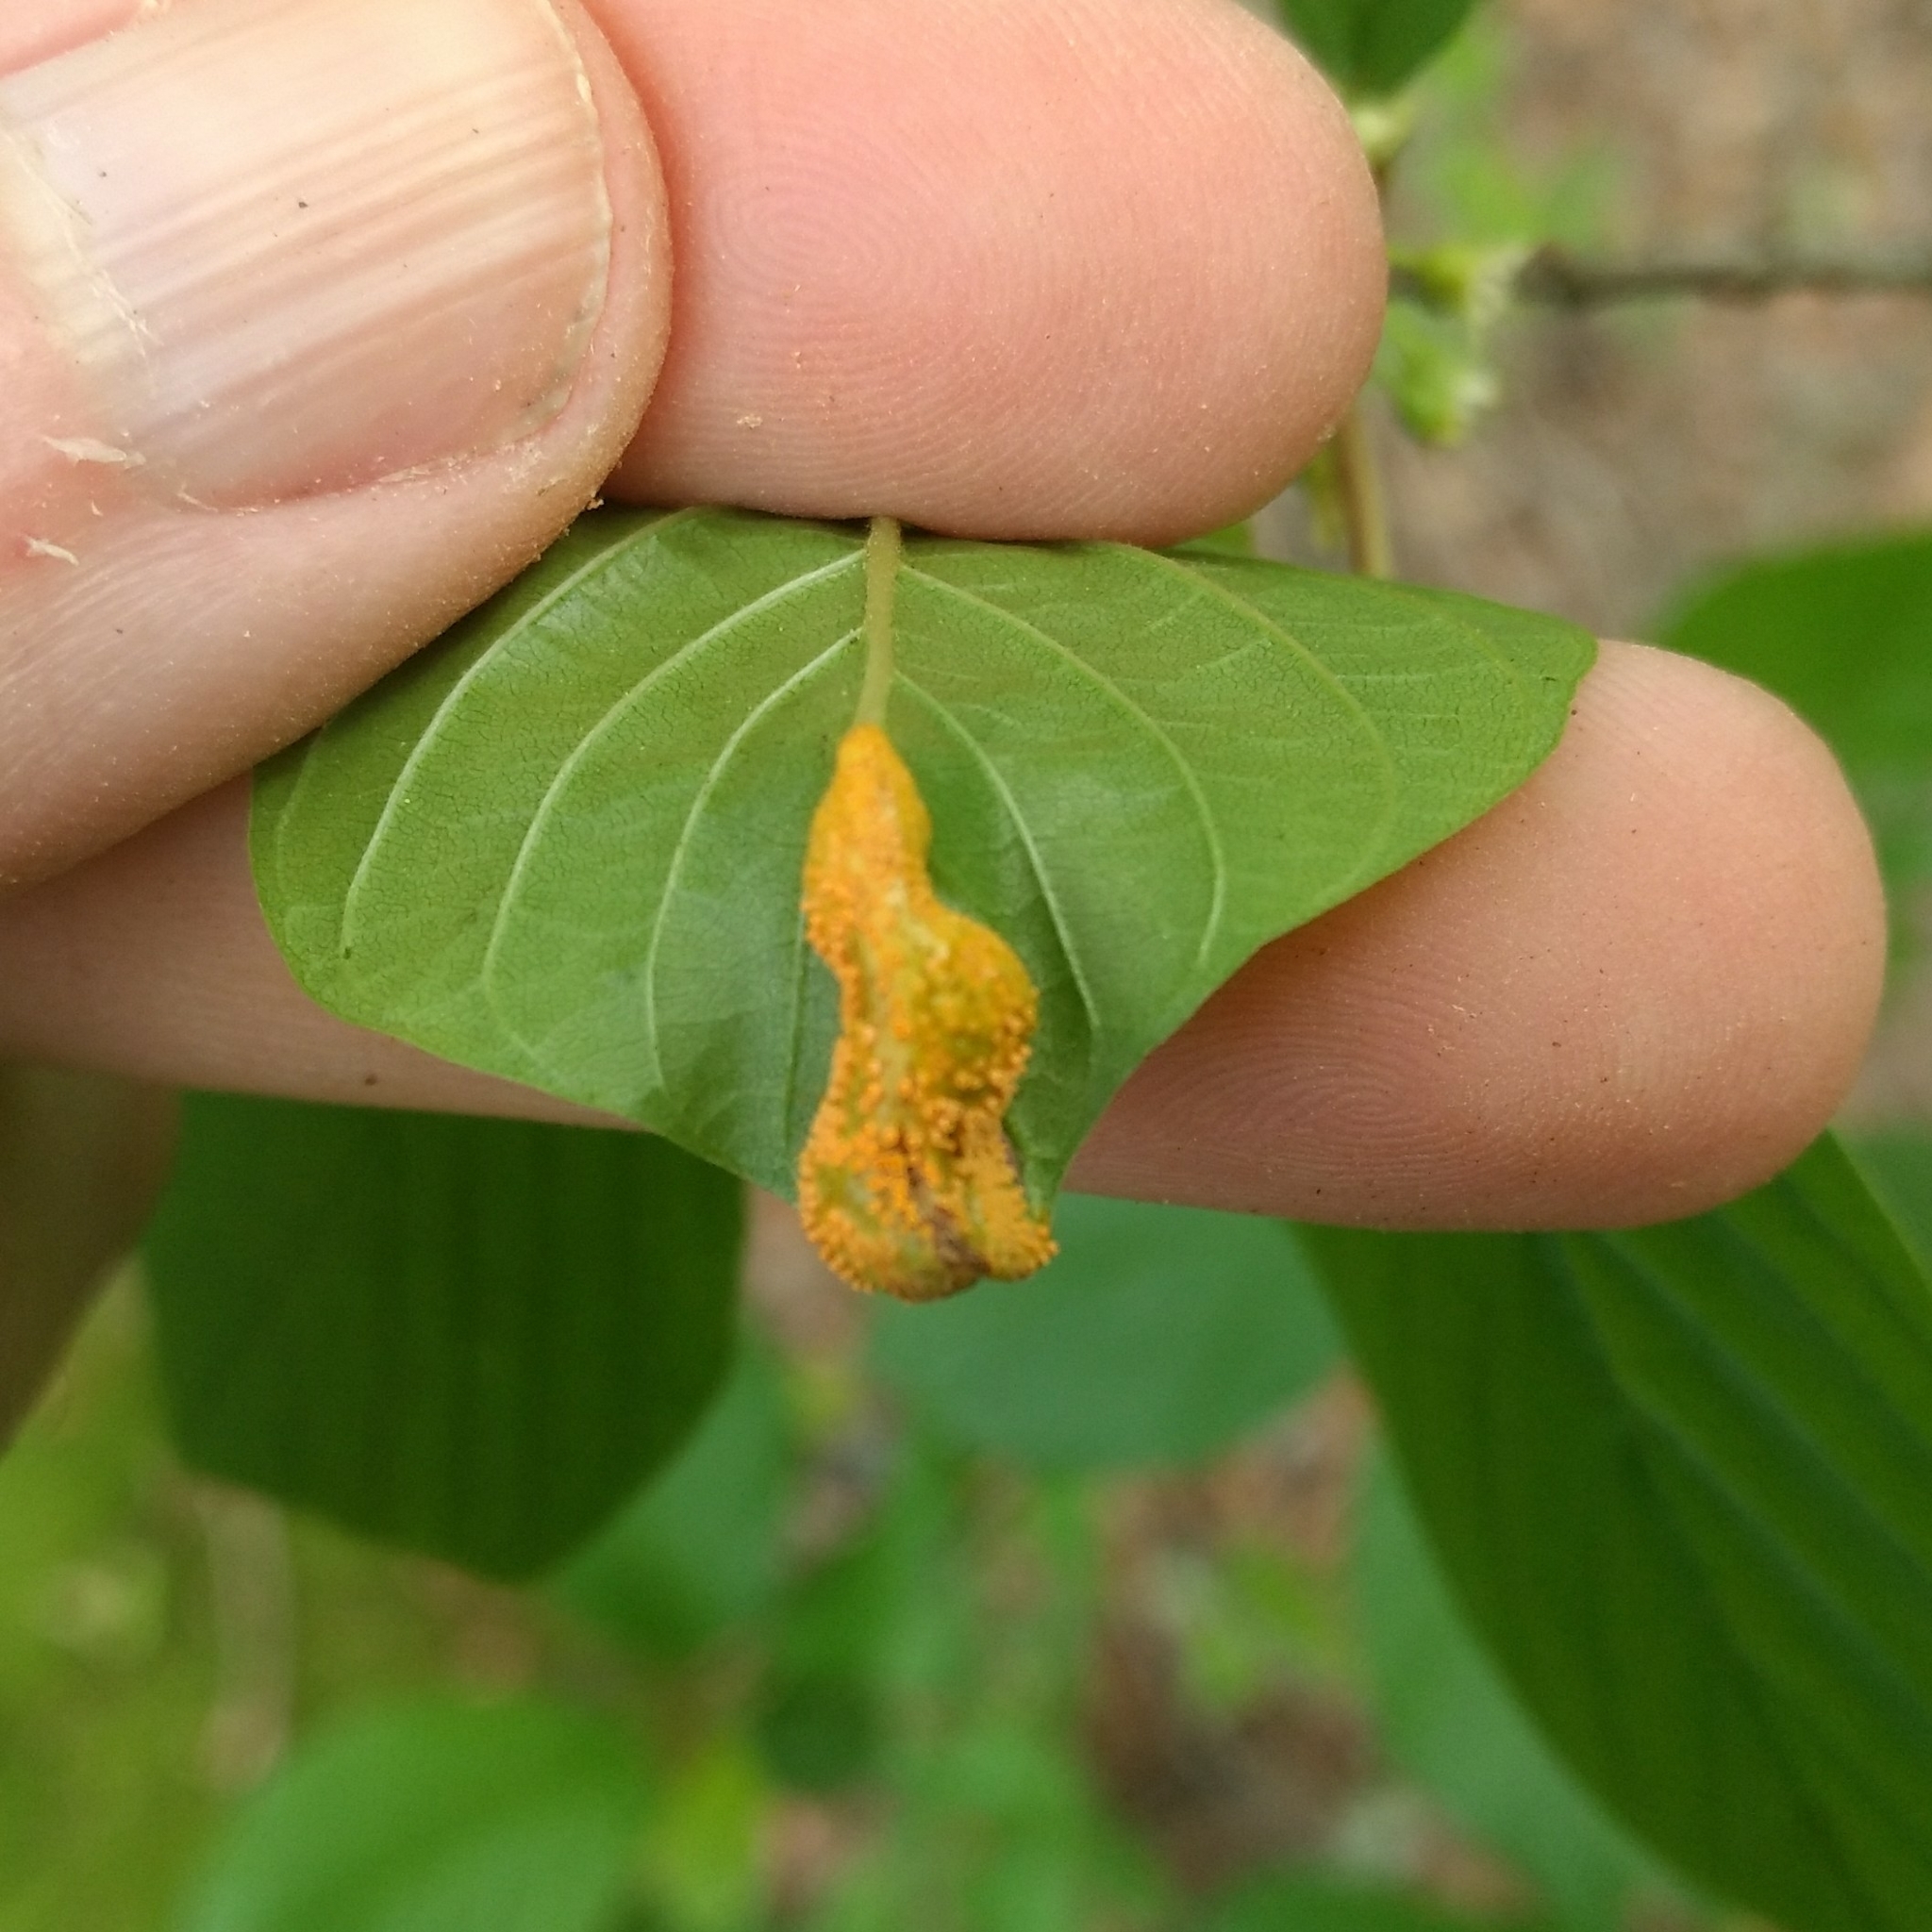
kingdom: Fungi
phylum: Basidiomycota
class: Pucciniomycetes
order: Pucciniales
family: Pucciniaceae
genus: Puccinia
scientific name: Puccinia coronata
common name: Crown rust
